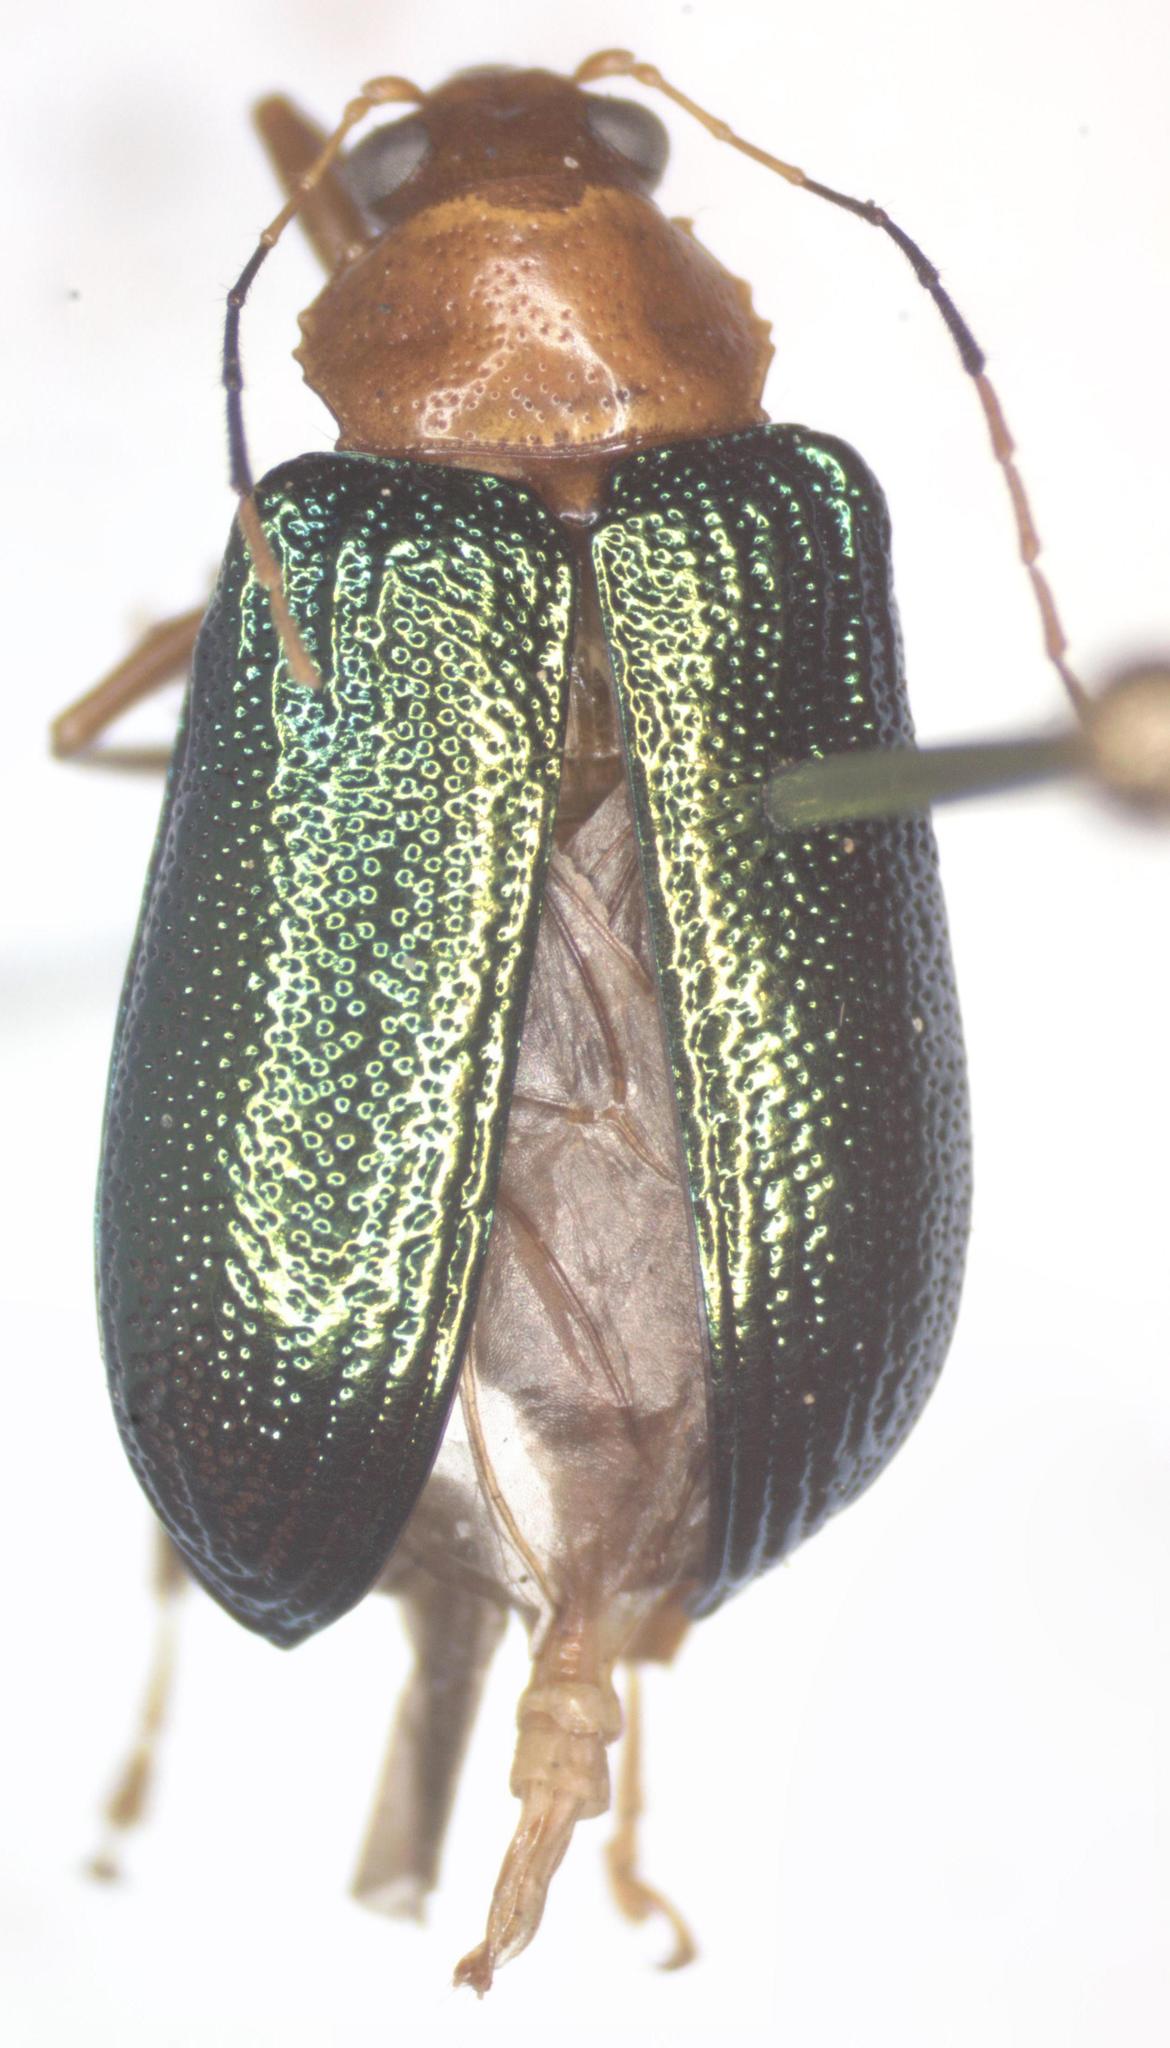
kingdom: Animalia
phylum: Arthropoda
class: Insecta
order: Coleoptera
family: Chrysomelidae
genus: Metaxyonycha
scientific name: Metaxyonycha
